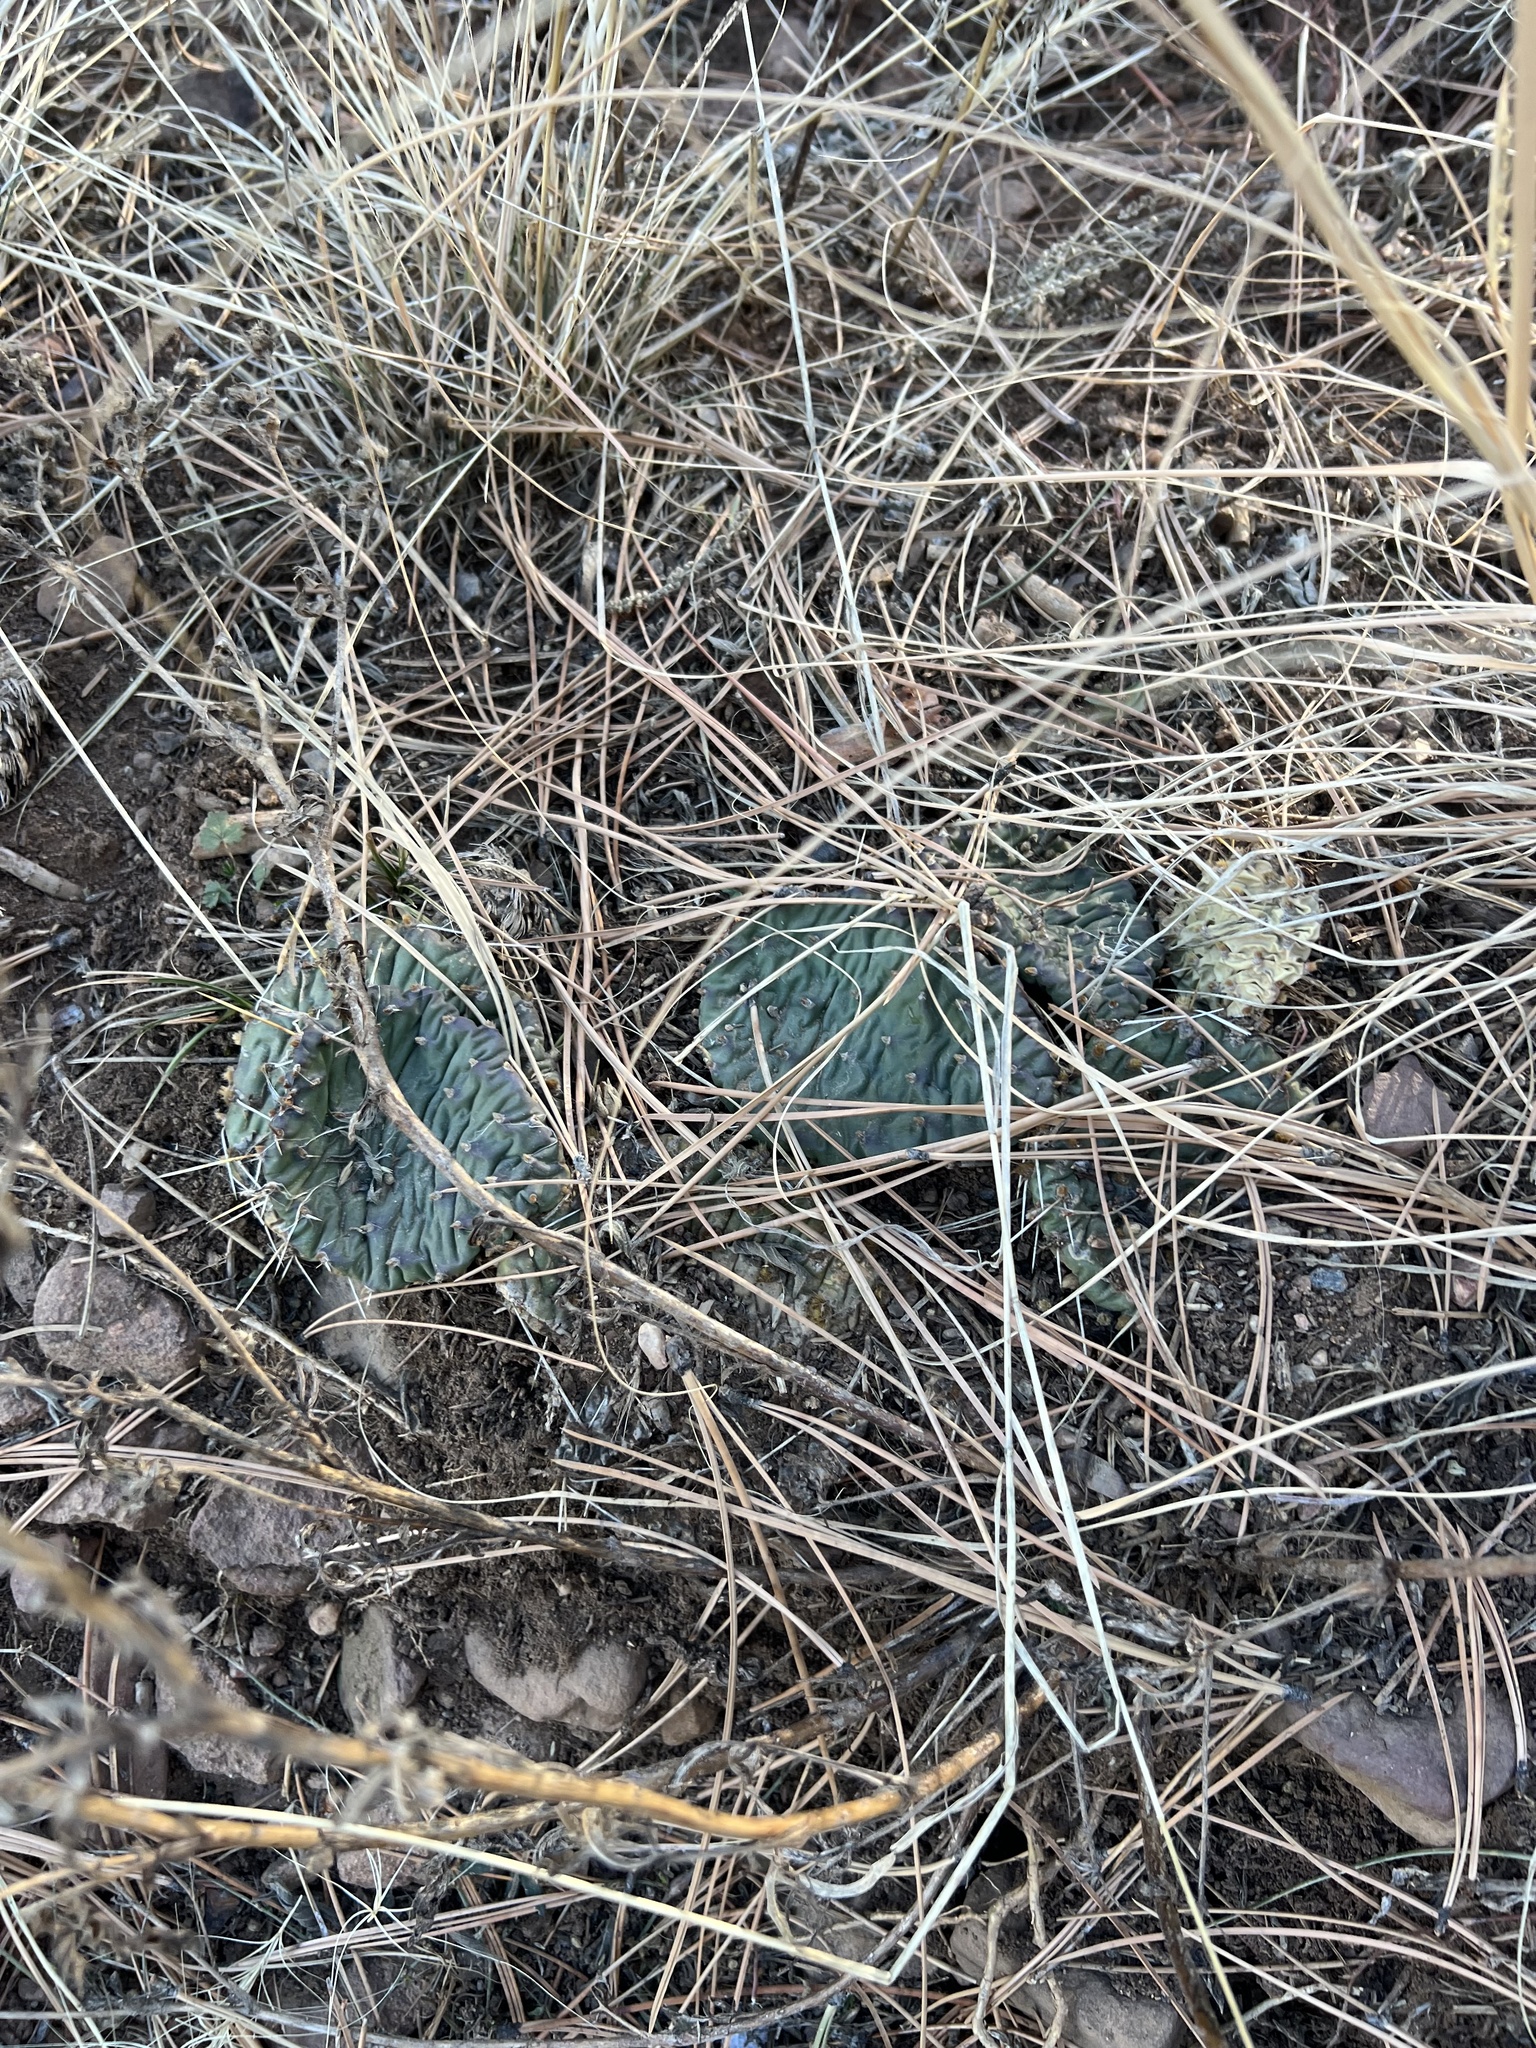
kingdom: Plantae
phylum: Tracheophyta
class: Magnoliopsida
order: Caryophyllales
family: Cactaceae
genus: Opuntia
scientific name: Opuntia macrorhiza
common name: Grassland pricklypear
